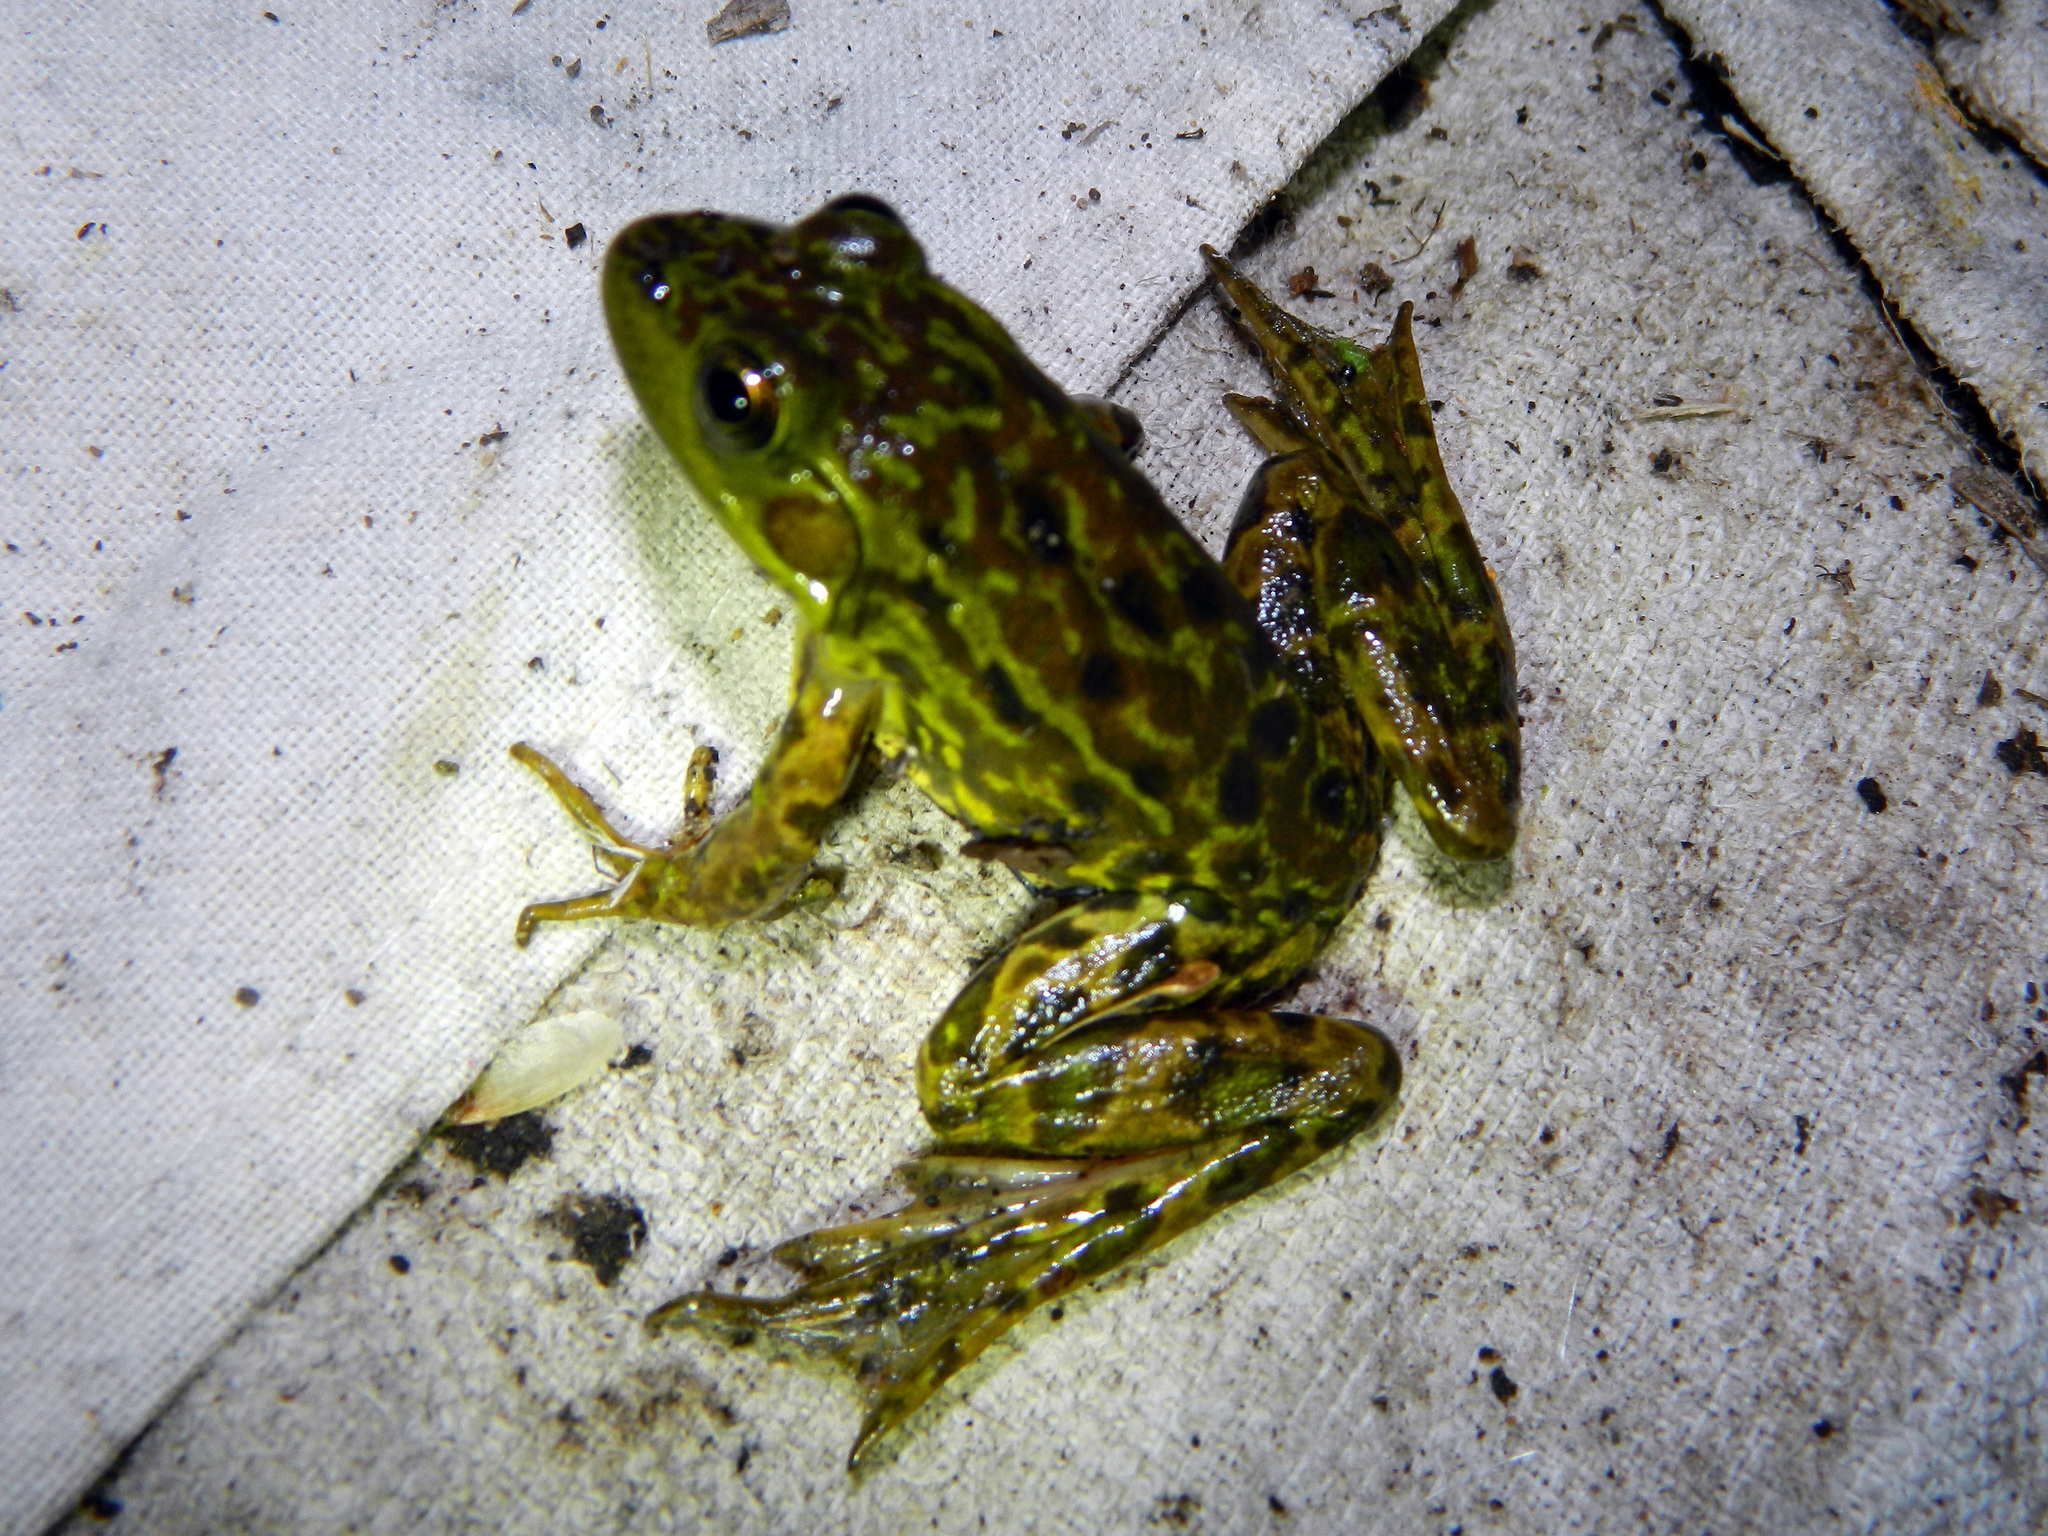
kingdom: Animalia
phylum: Chordata
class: Amphibia
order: Anura
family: Ranidae
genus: Lithobates
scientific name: Lithobates septentrionalis
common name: Mink frog
